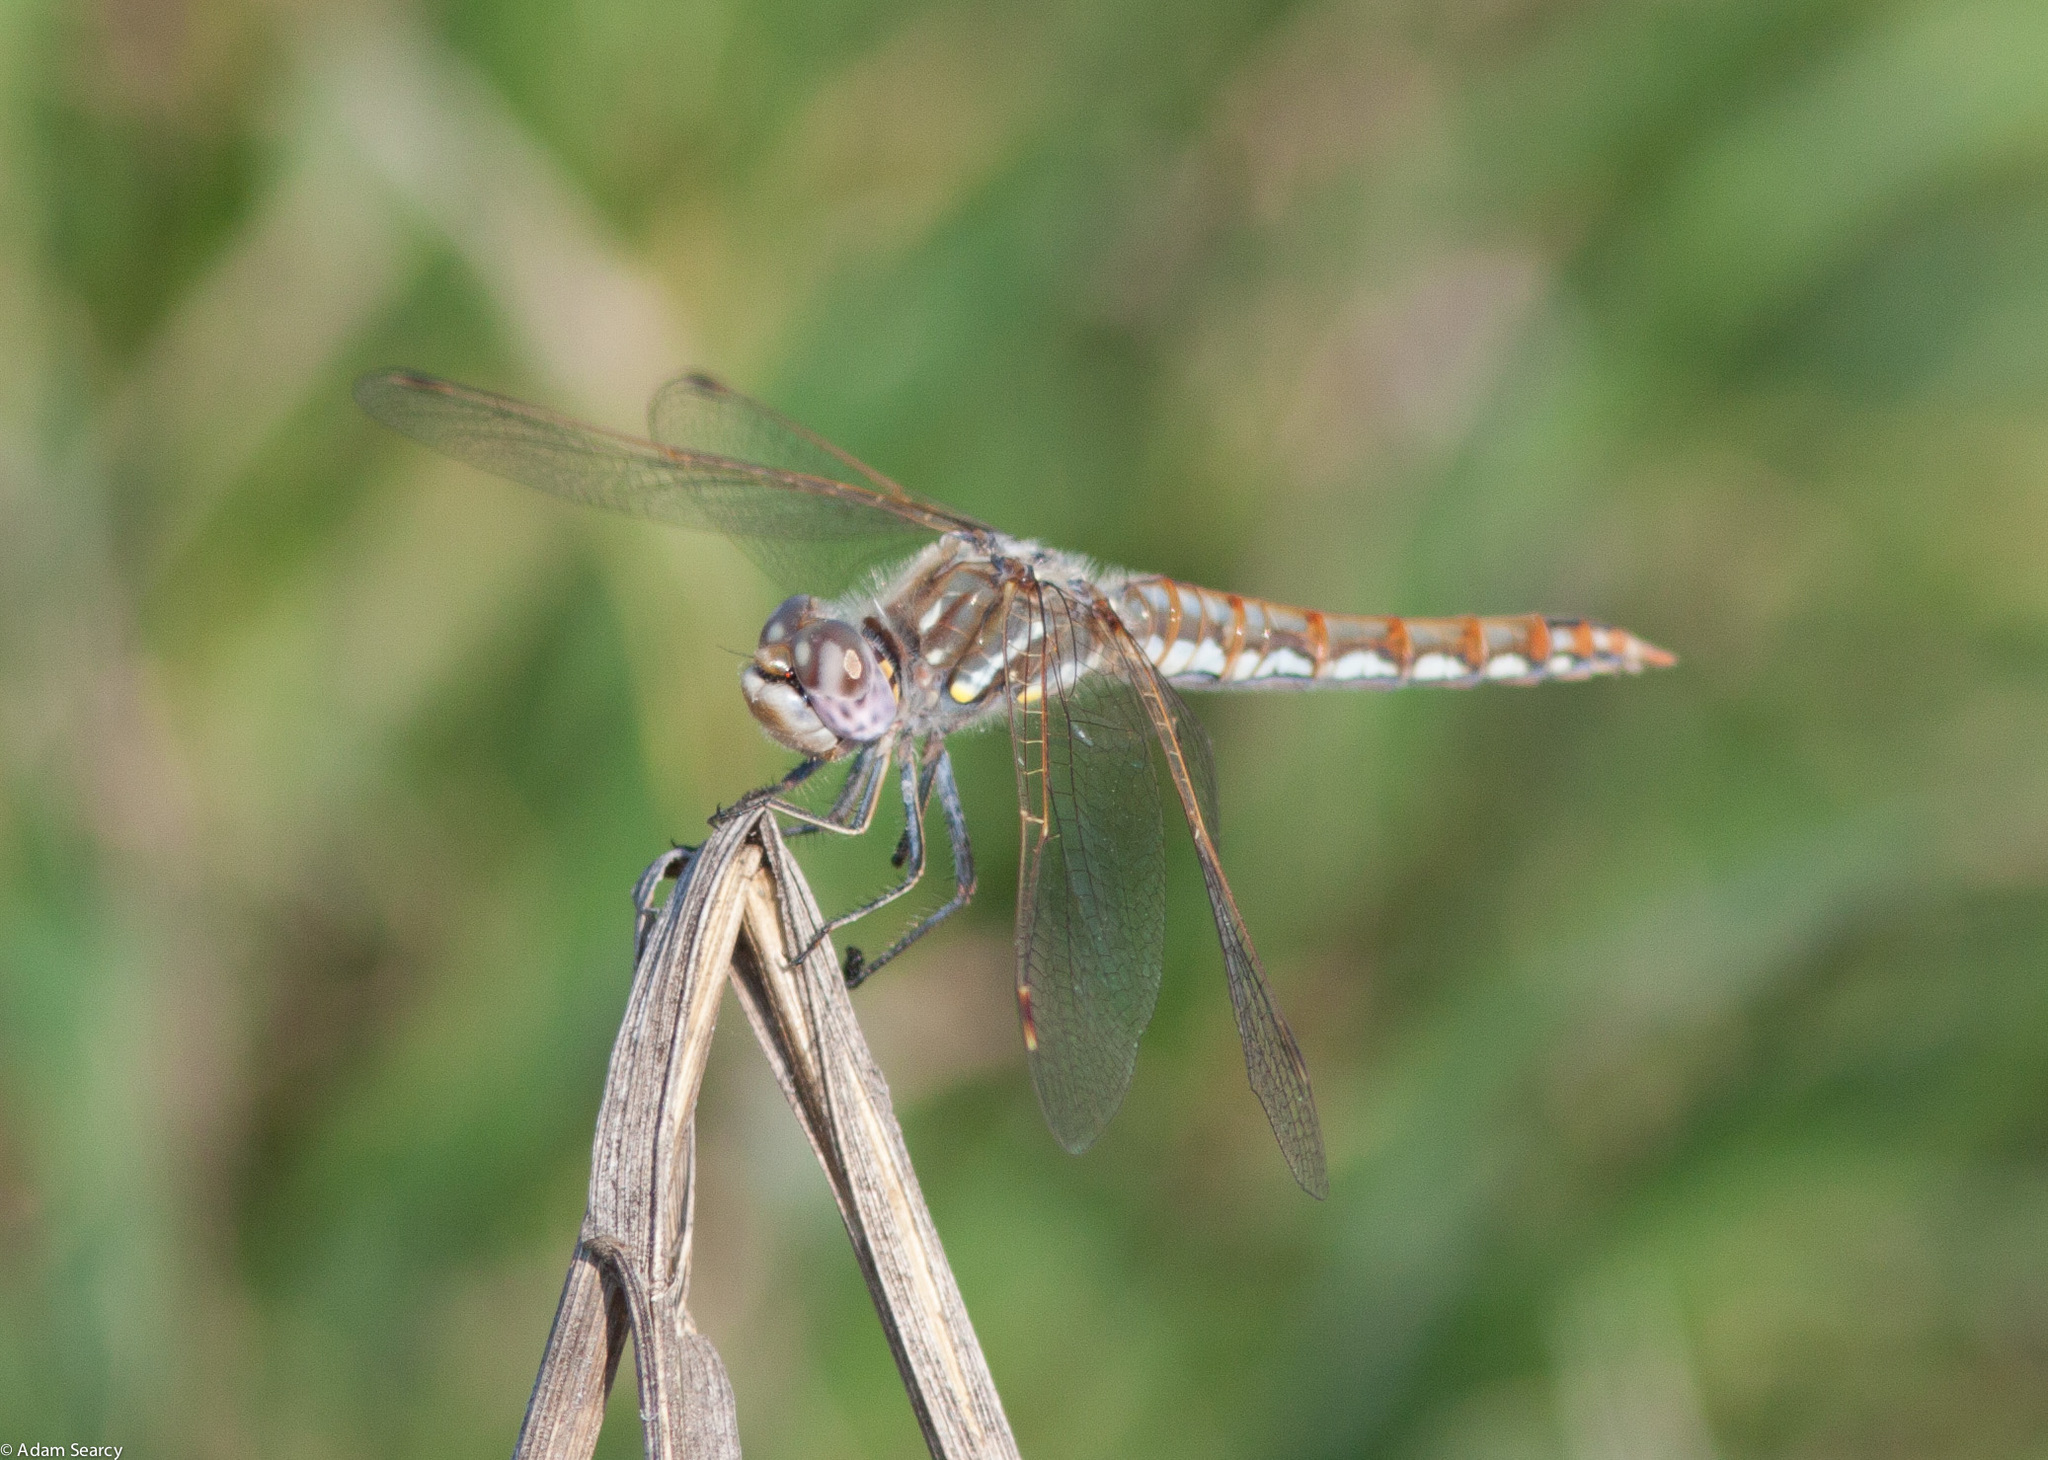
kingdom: Animalia
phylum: Arthropoda
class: Insecta
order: Odonata
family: Libellulidae
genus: Sympetrum
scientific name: Sympetrum corruptum
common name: Variegated meadowhawk
